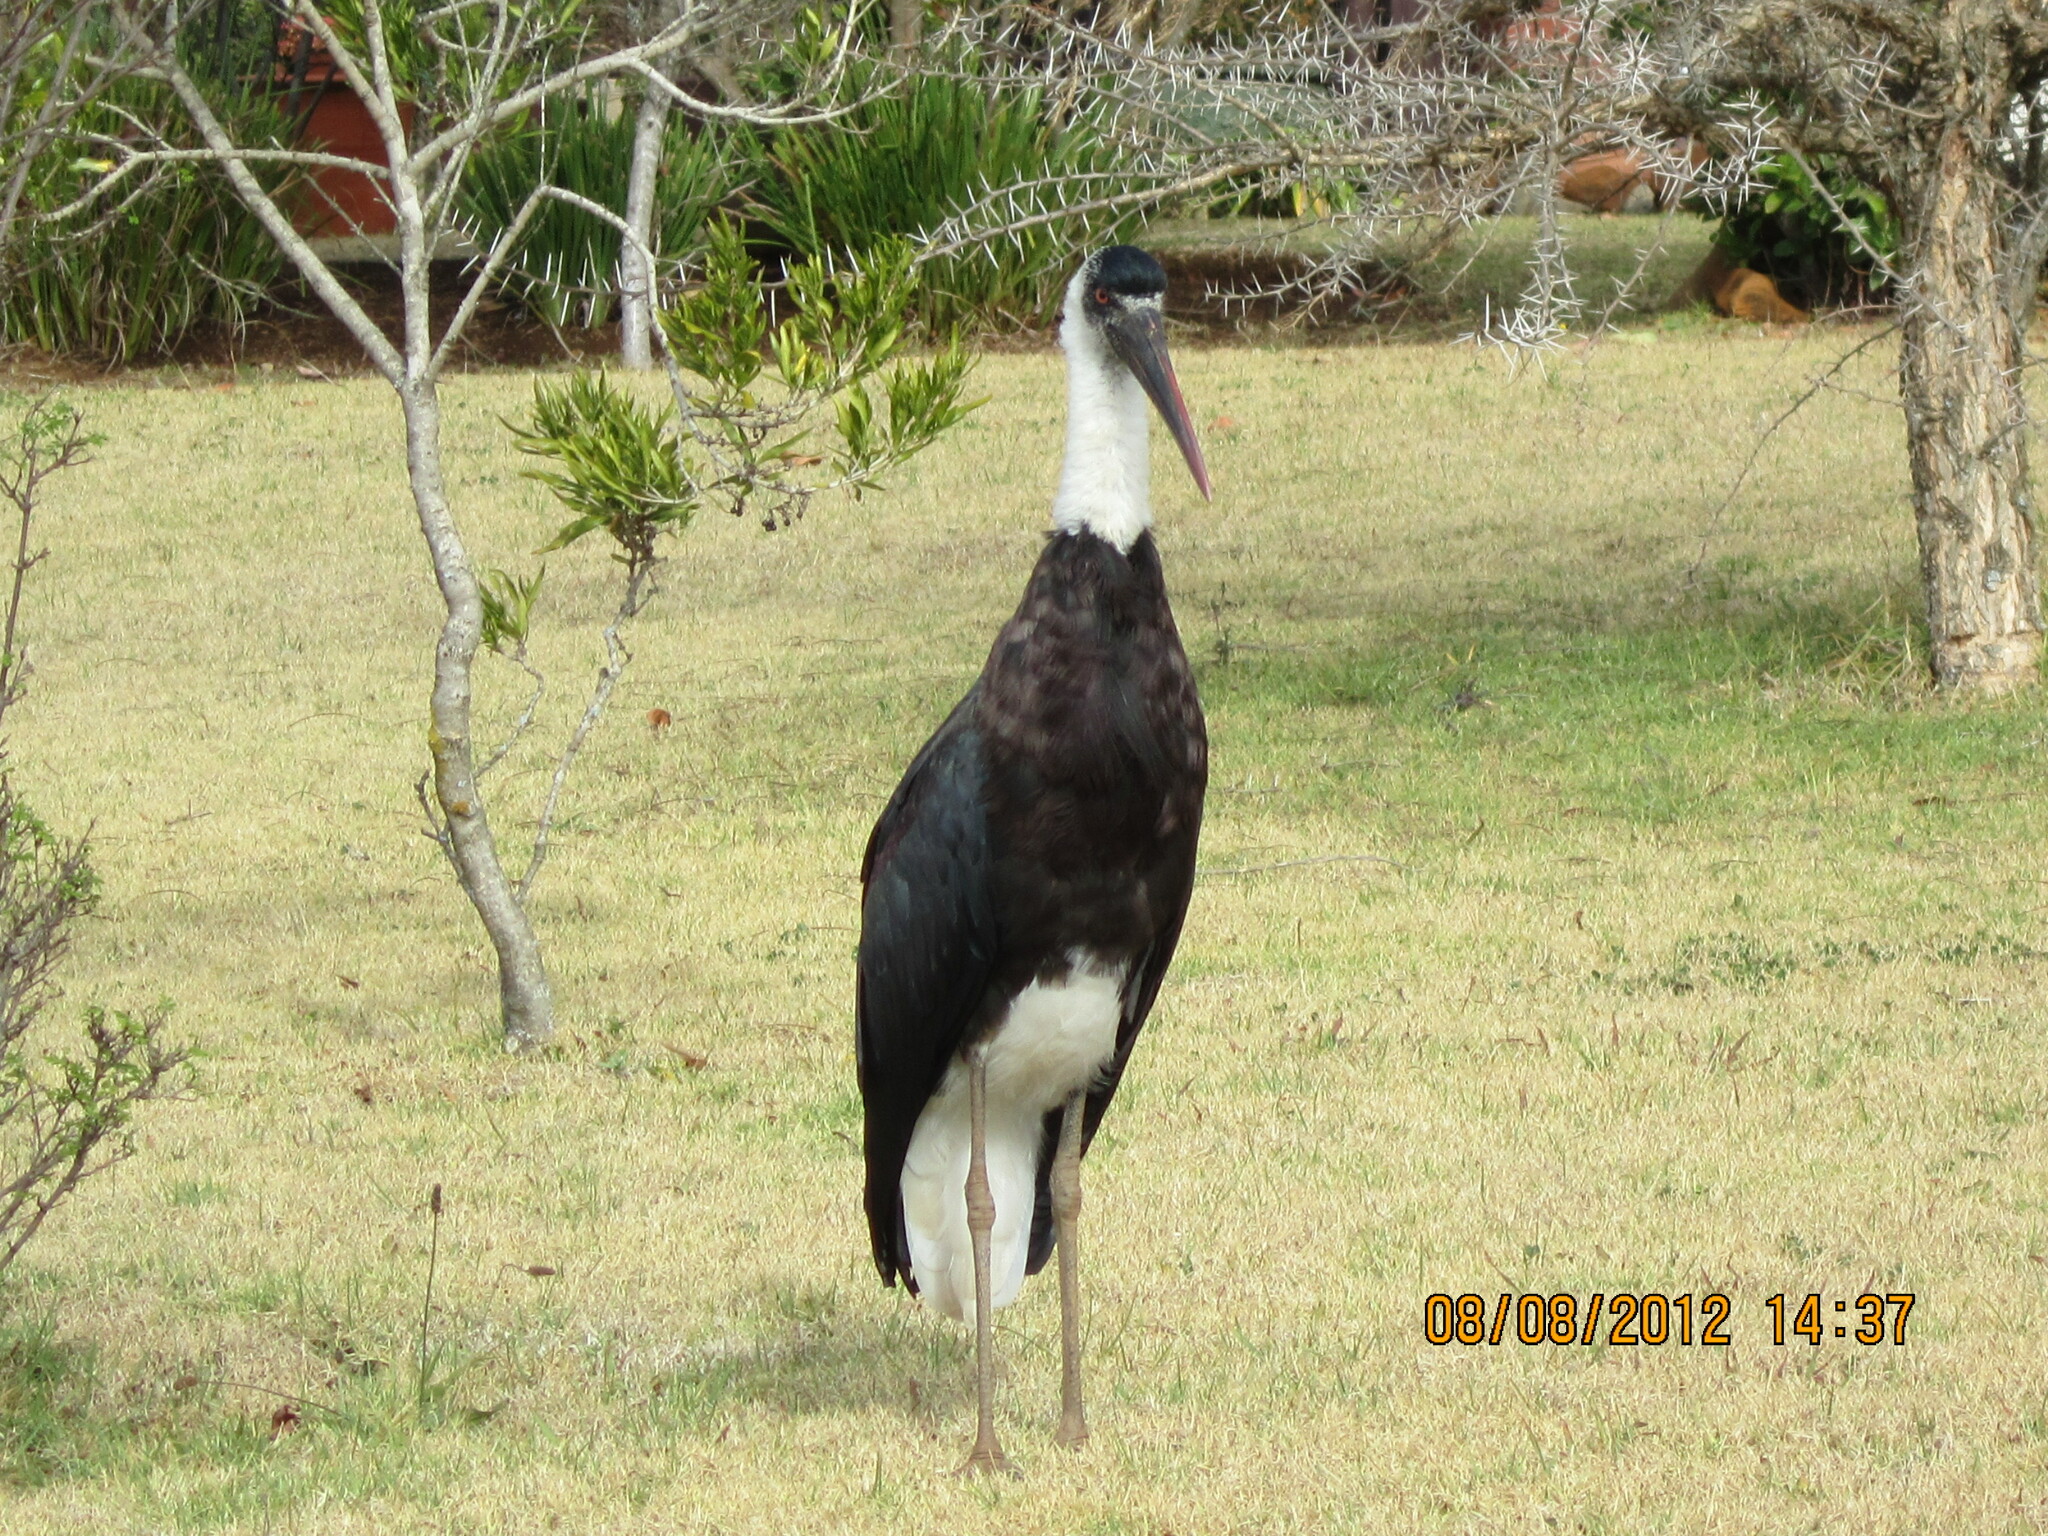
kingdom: Animalia
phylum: Chordata
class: Aves
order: Ciconiiformes
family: Ciconiidae
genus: Ciconia
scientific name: Ciconia microscelis
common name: African woollyneck
